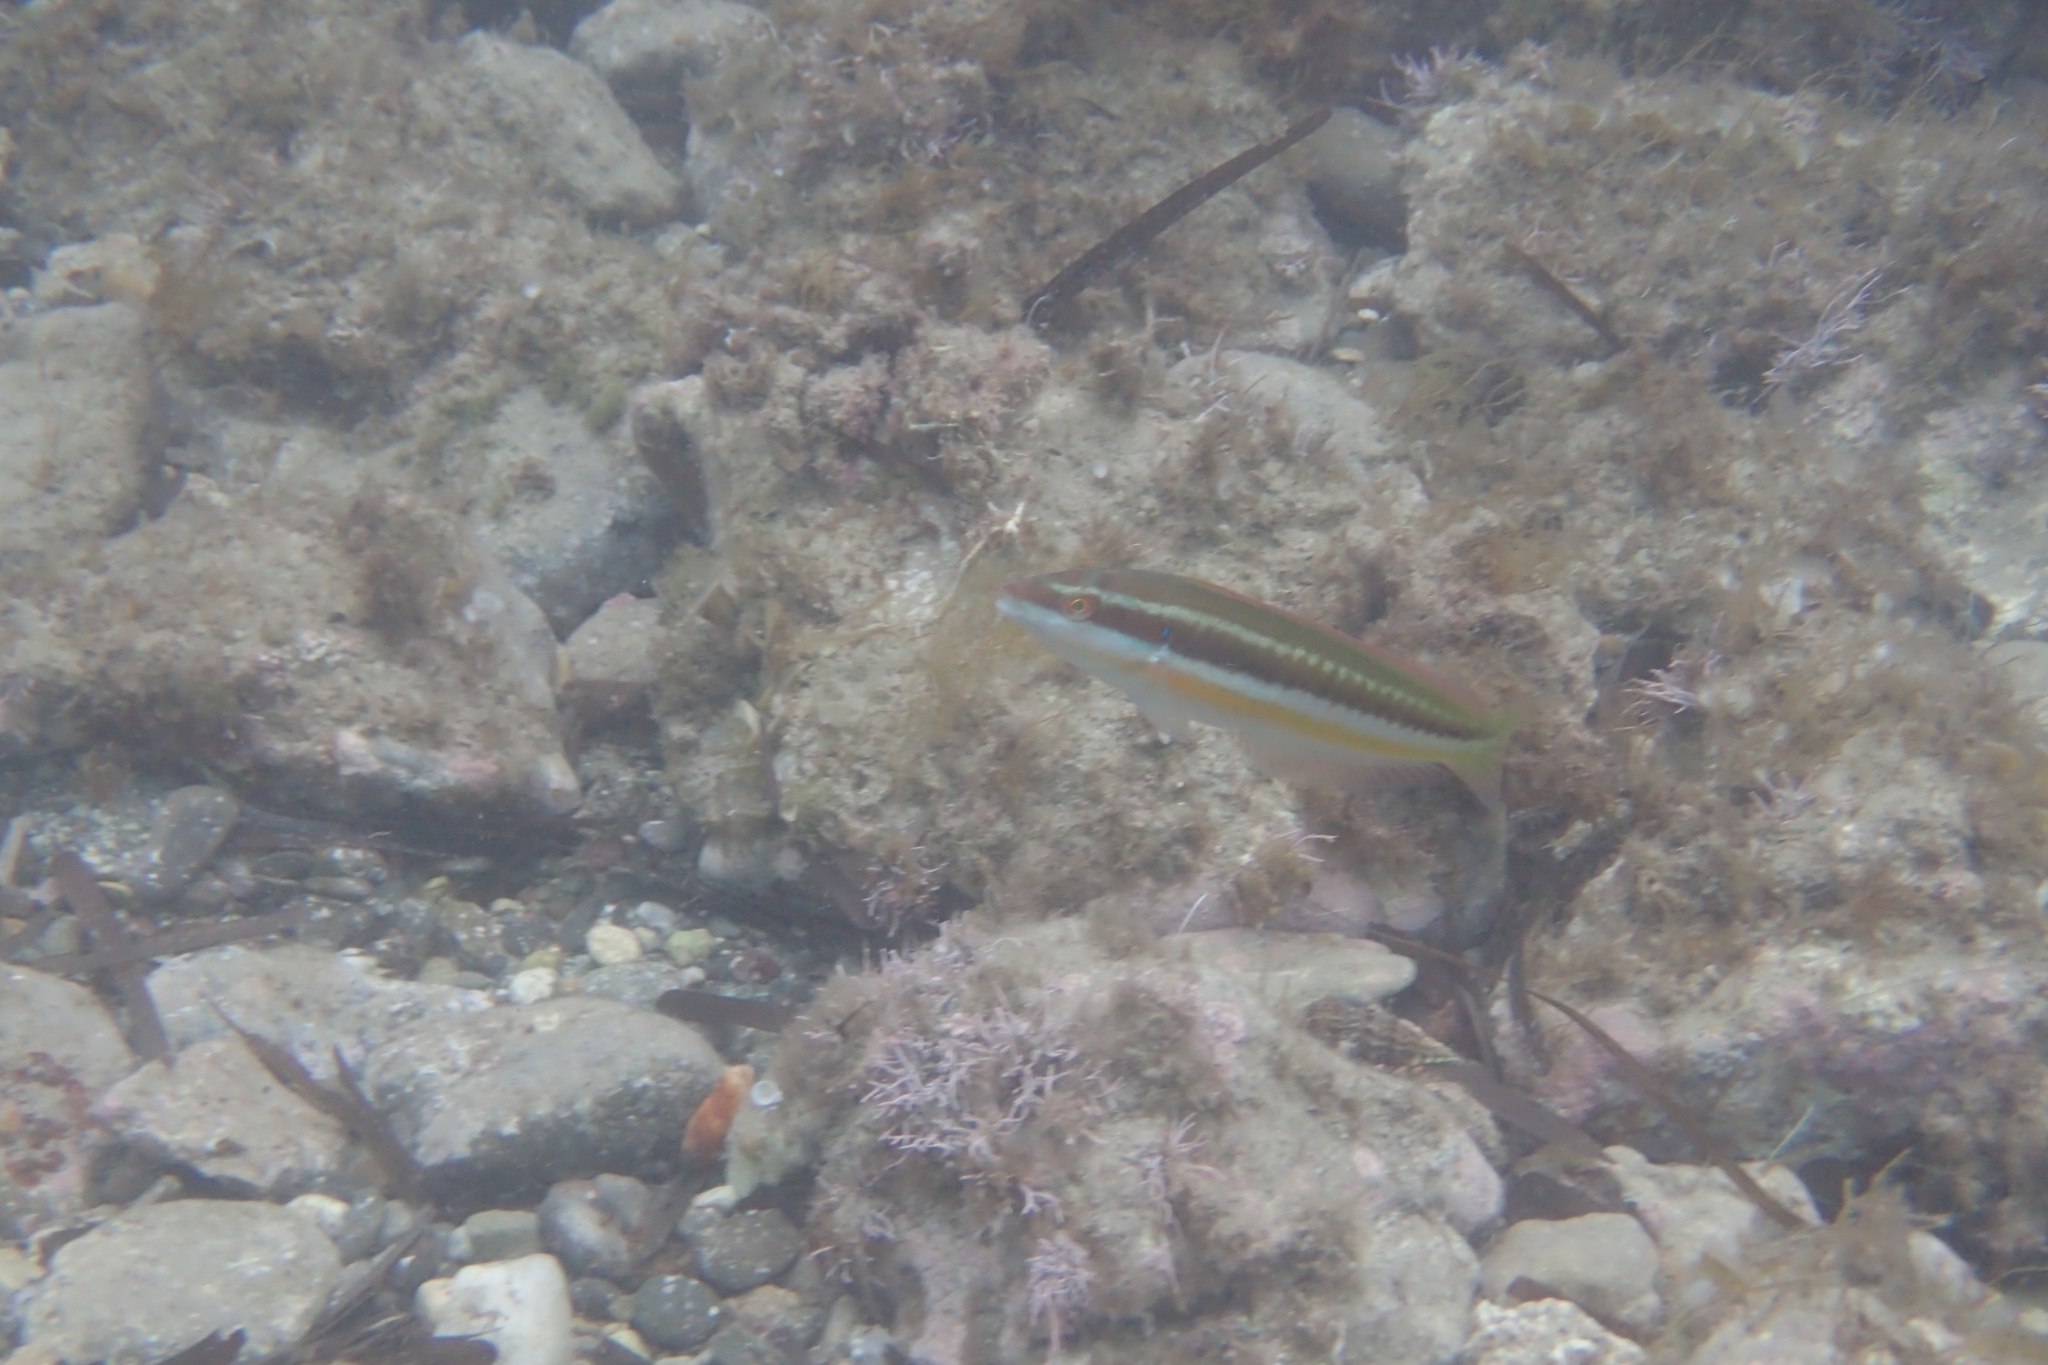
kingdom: Animalia
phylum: Chordata
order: Perciformes
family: Labridae
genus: Coris
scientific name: Coris julis
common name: Rainbow wrasse
